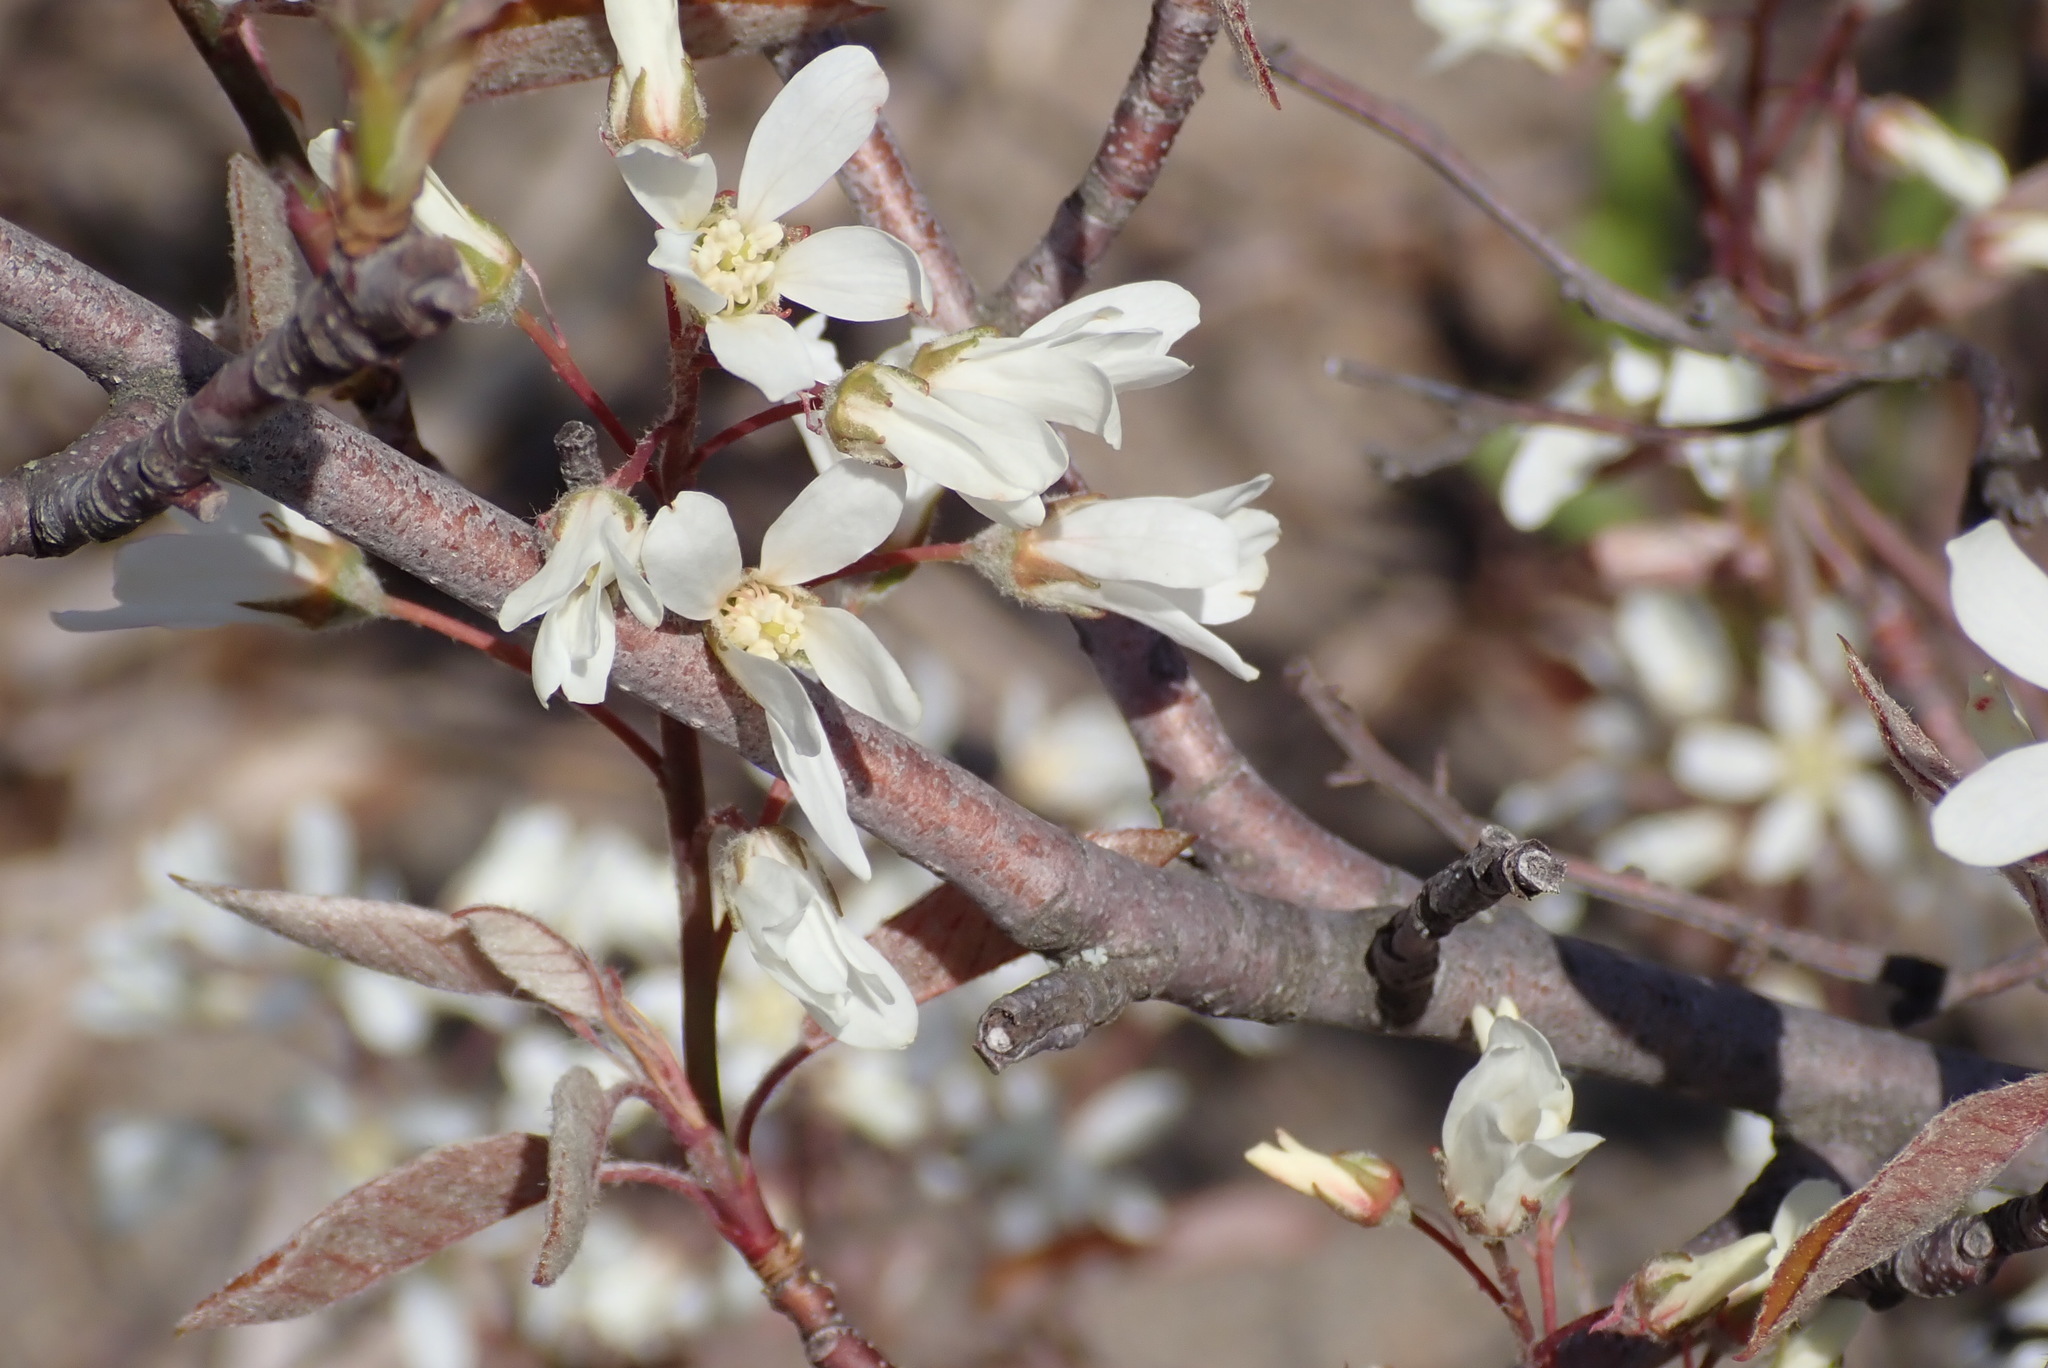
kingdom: Plantae
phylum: Tracheophyta
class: Magnoliopsida
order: Rosales
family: Rosaceae
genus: Amelanchier
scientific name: Amelanchier arborea
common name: Downy serviceberry
